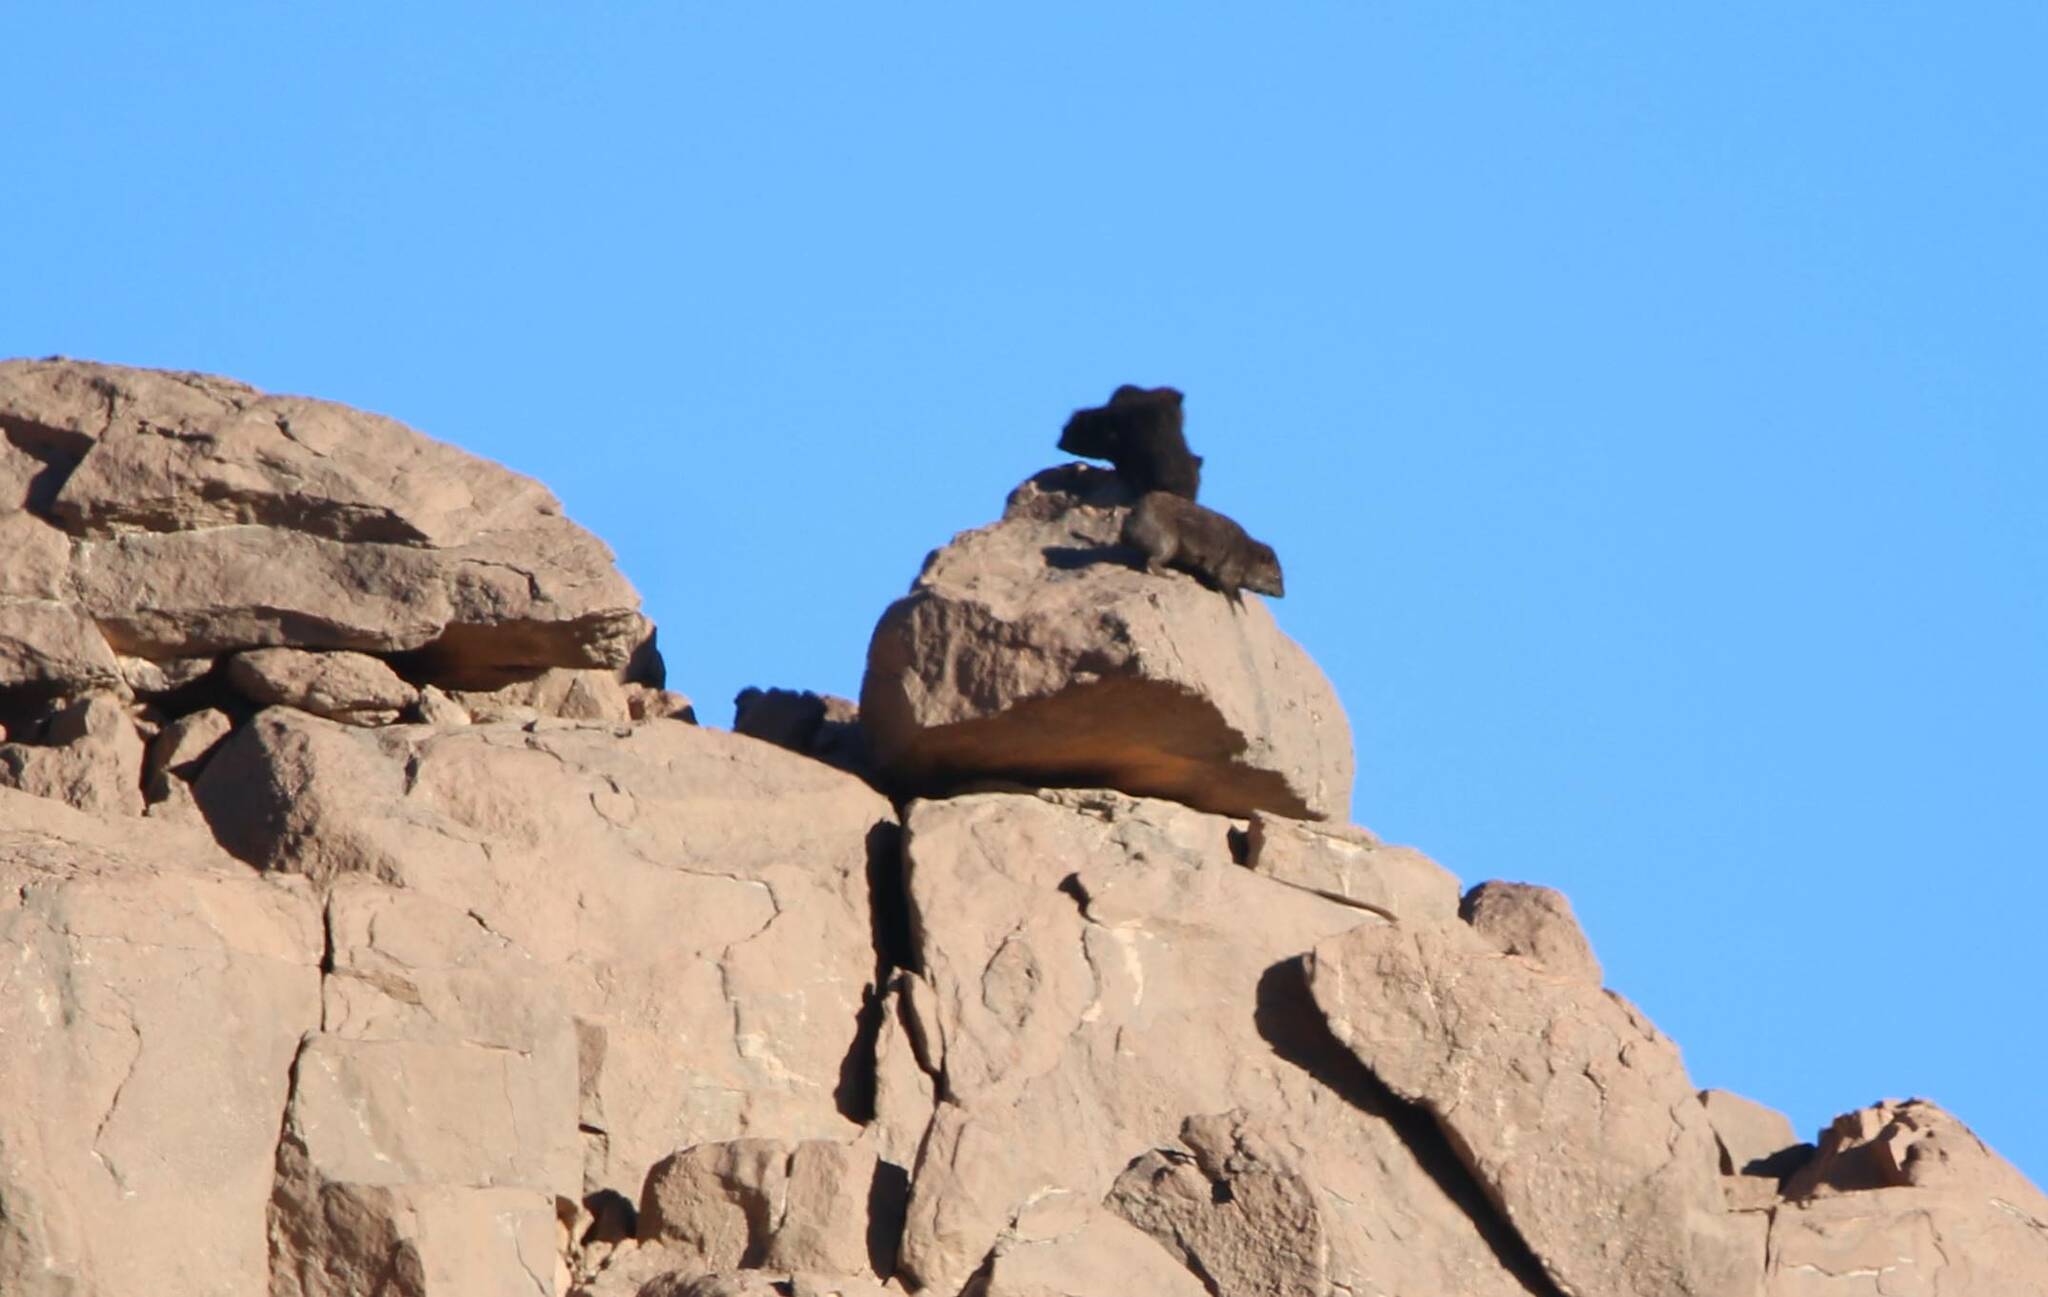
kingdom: Animalia
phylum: Chordata
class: Mammalia
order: Hyracoidea
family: Procaviidae
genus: Procavia
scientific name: Procavia capensis
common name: Rock hyrax
